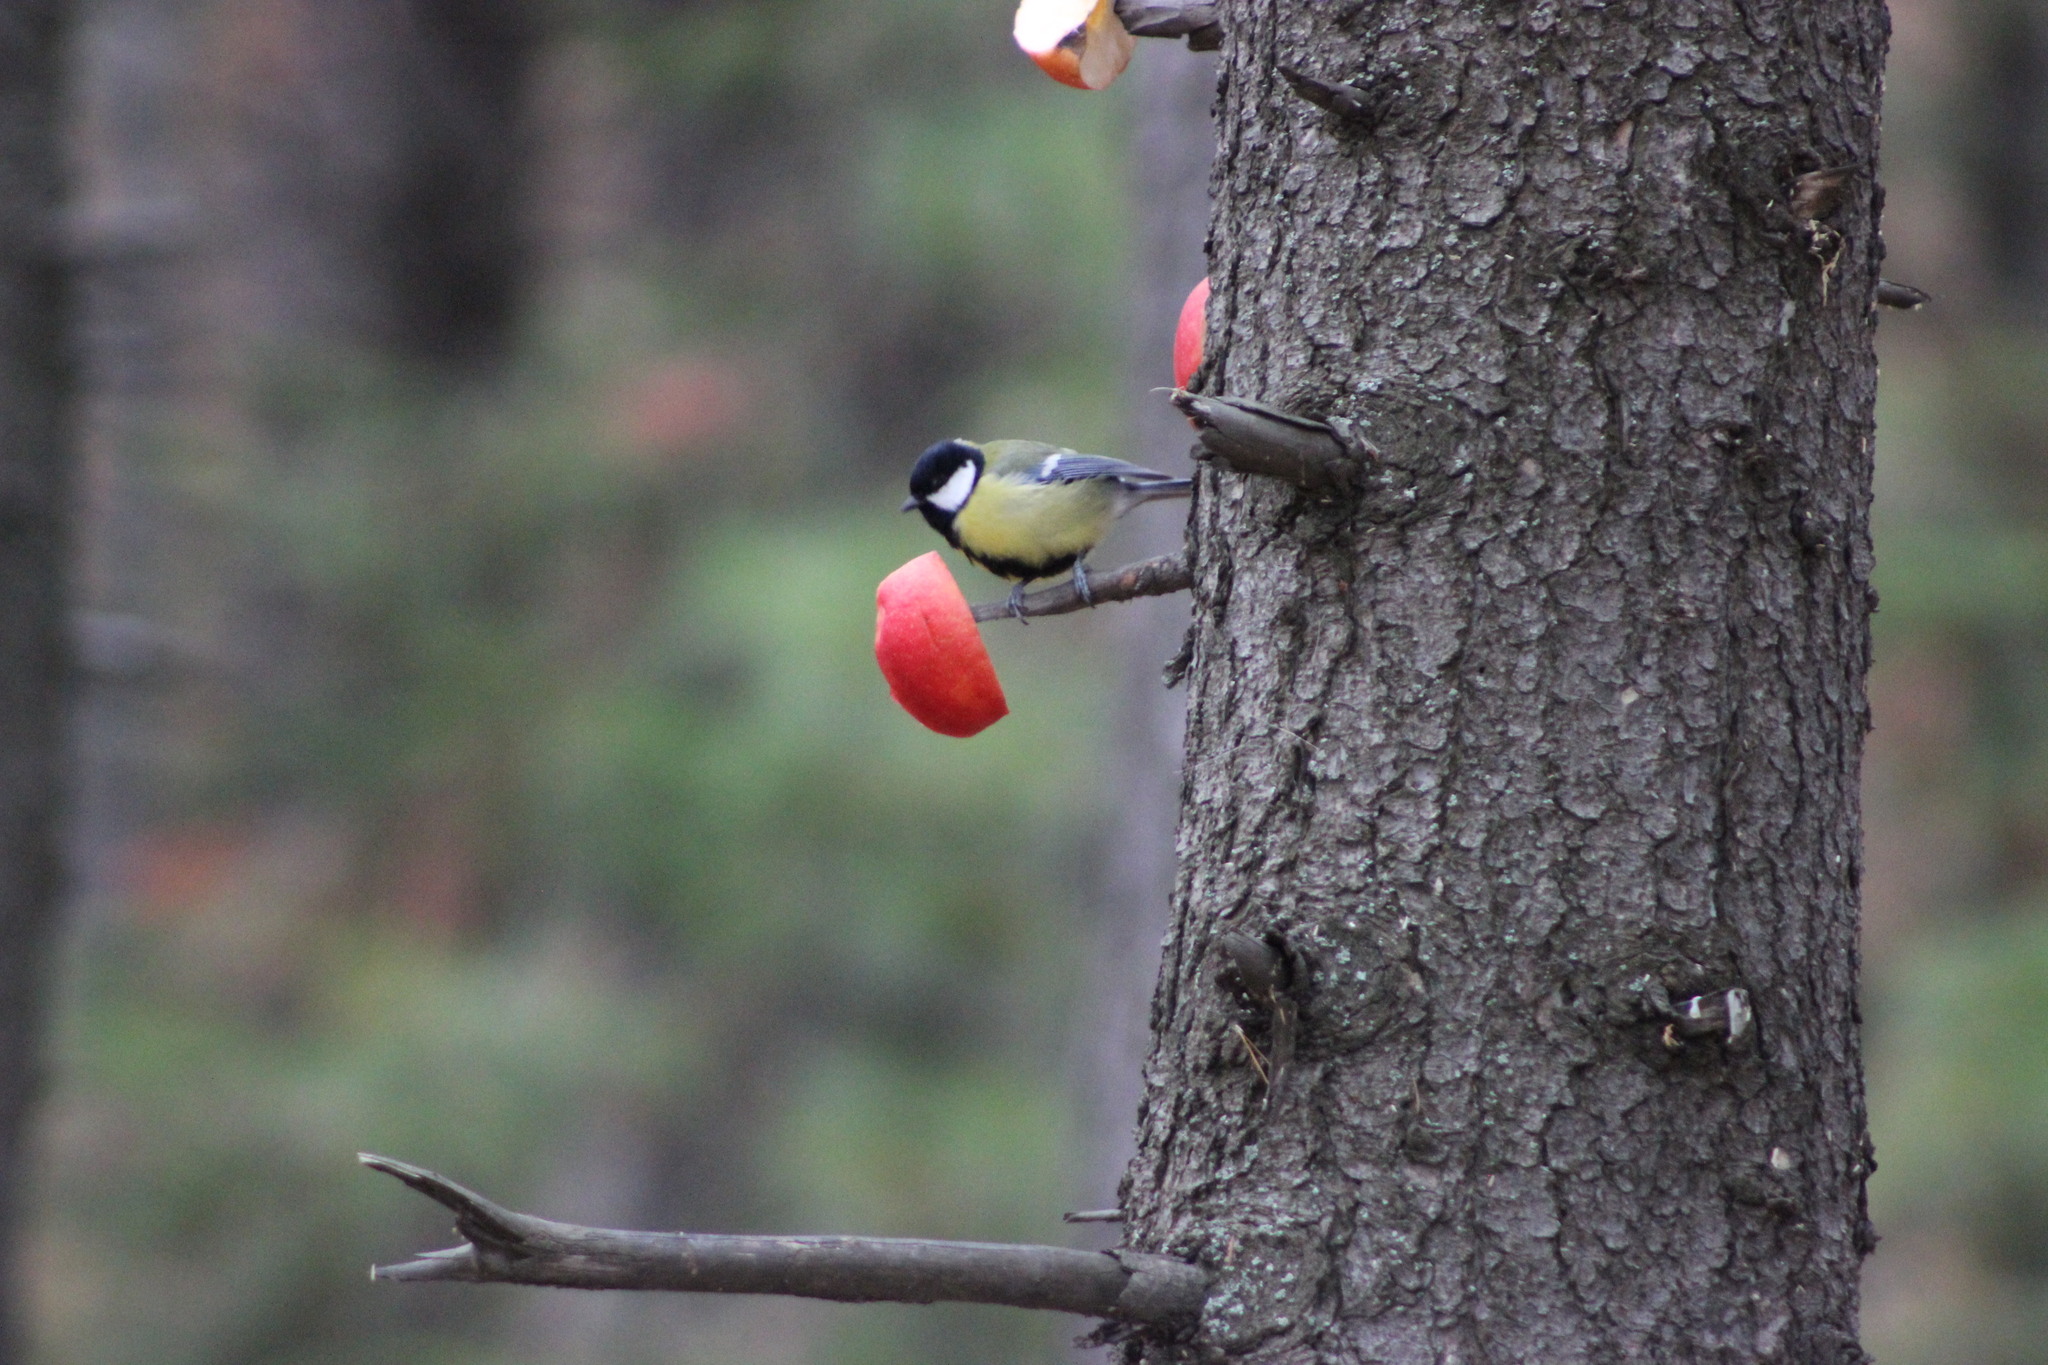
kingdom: Animalia
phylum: Chordata
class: Aves
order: Passeriformes
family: Paridae
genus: Parus
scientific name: Parus major
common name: Great tit
